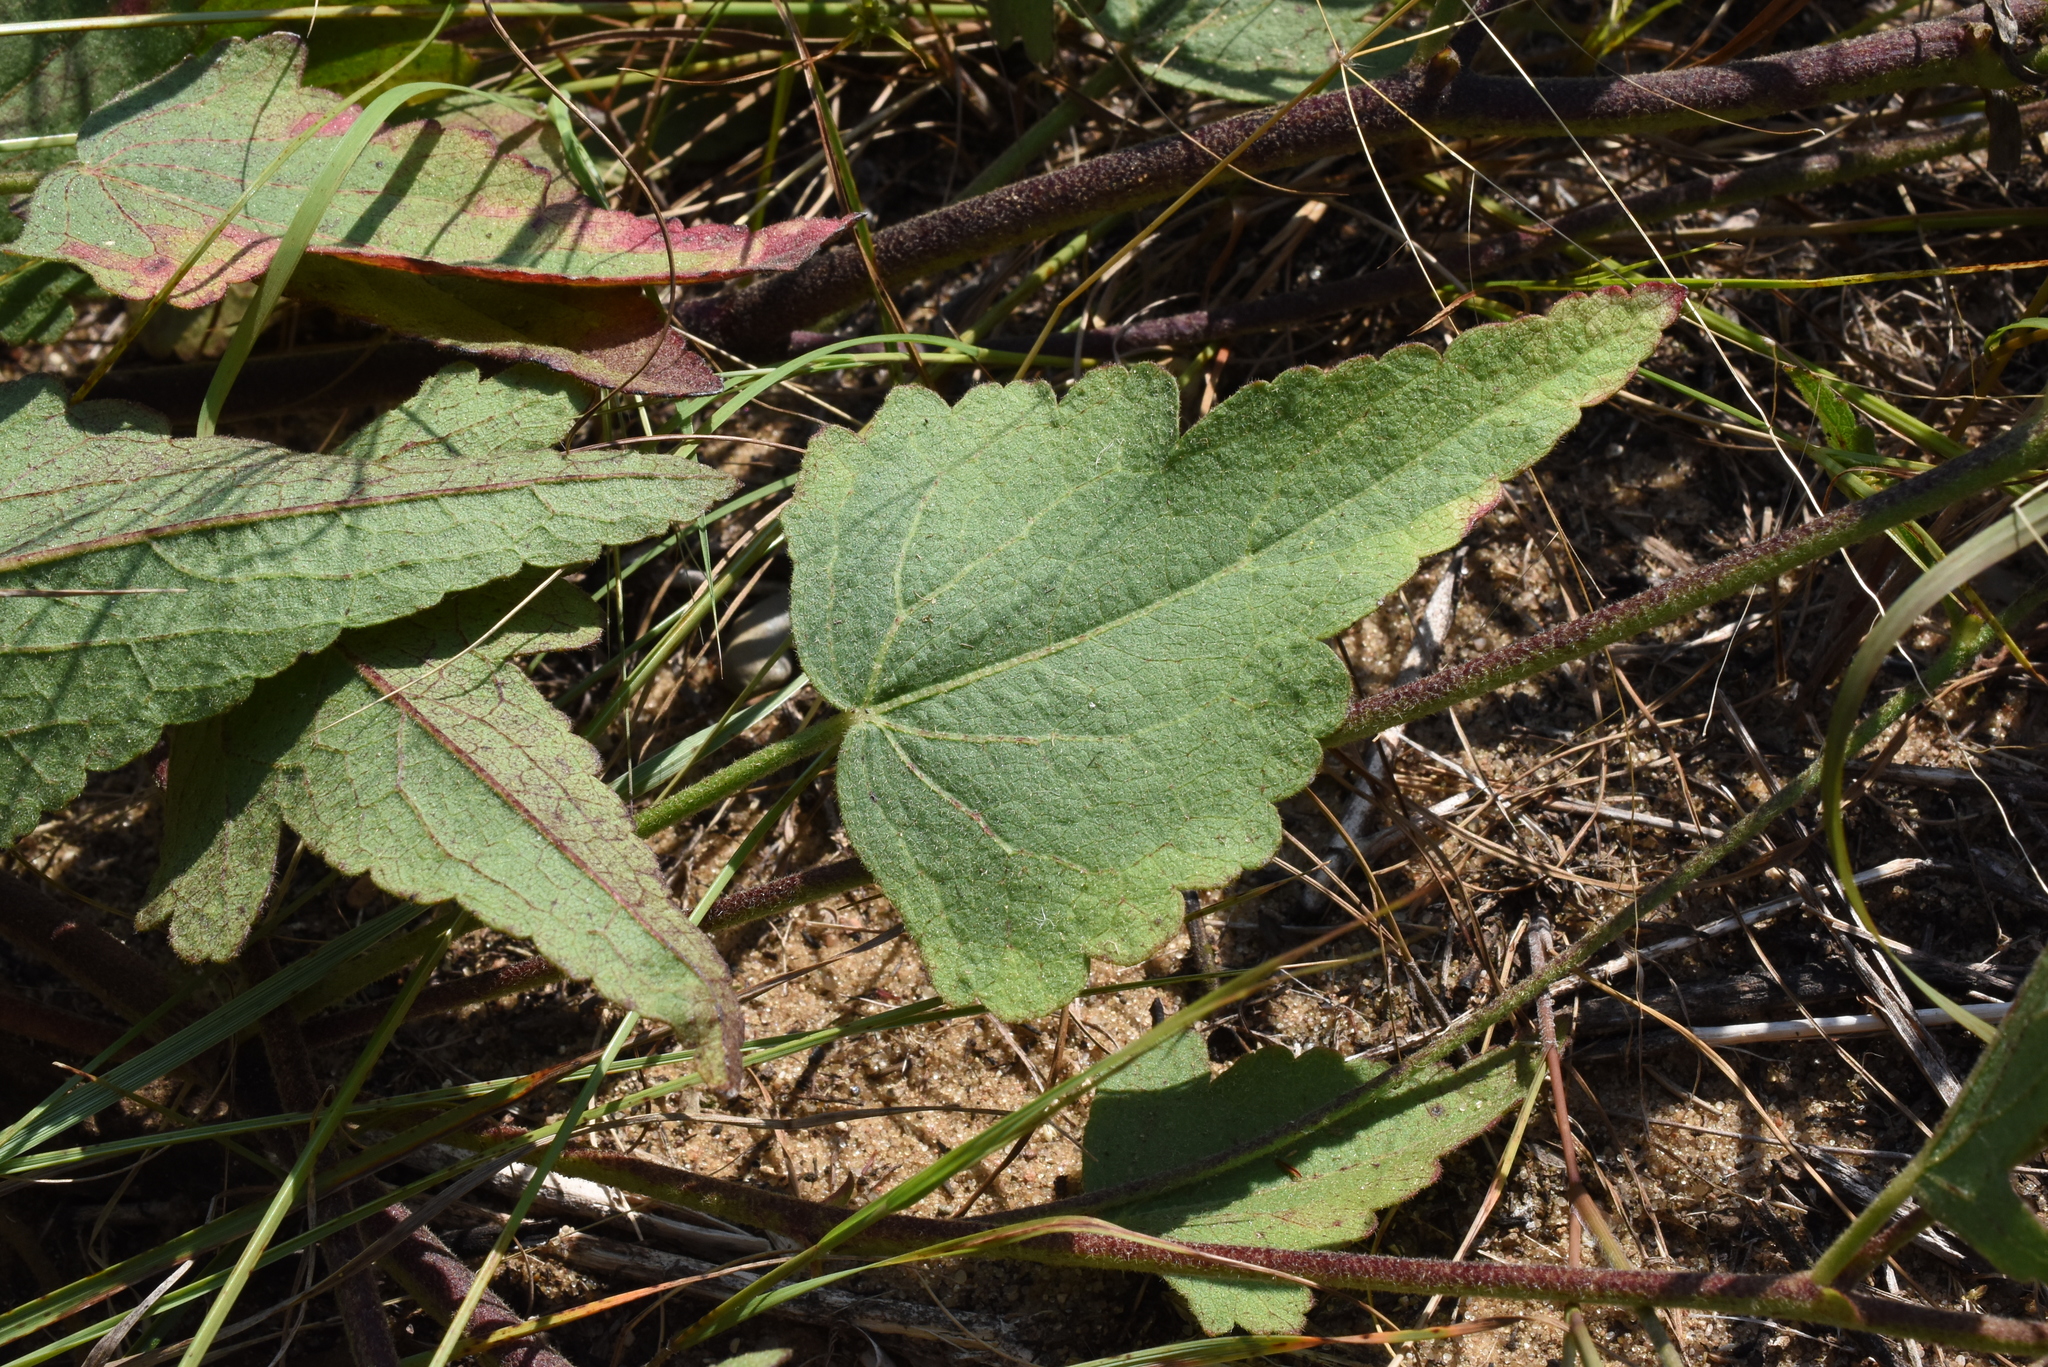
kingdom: Plantae
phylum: Tracheophyta
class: Magnoliopsida
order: Malvales
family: Malvaceae
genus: Callirhoe
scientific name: Callirhoe triangulata
